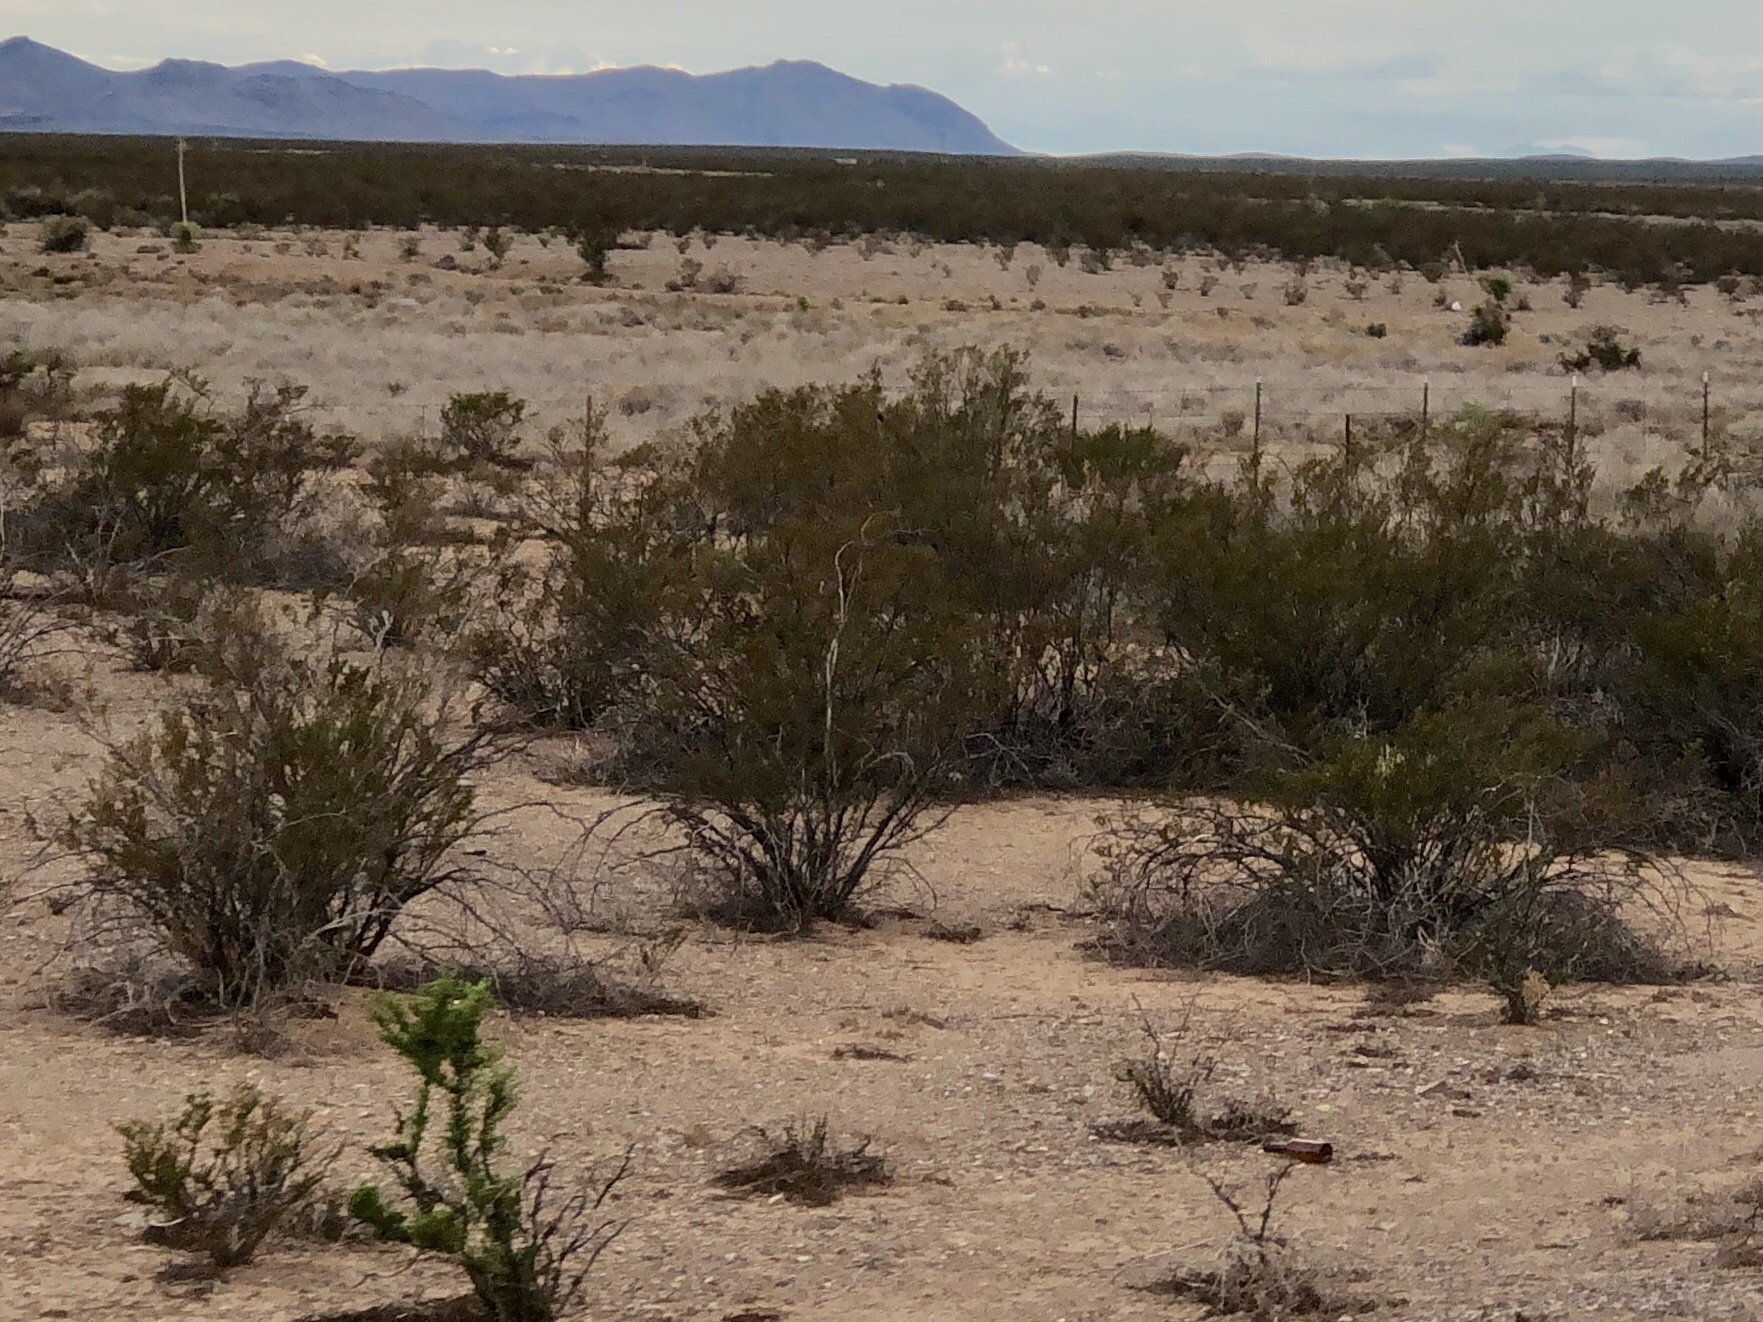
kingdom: Plantae
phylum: Tracheophyta
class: Magnoliopsida
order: Zygophyllales
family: Zygophyllaceae
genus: Larrea
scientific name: Larrea tridentata
